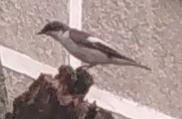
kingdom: Animalia
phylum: Chordata
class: Aves
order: Passeriformes
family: Muscicapidae
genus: Ficedula
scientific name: Ficedula hypoleuca
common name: European pied flycatcher
